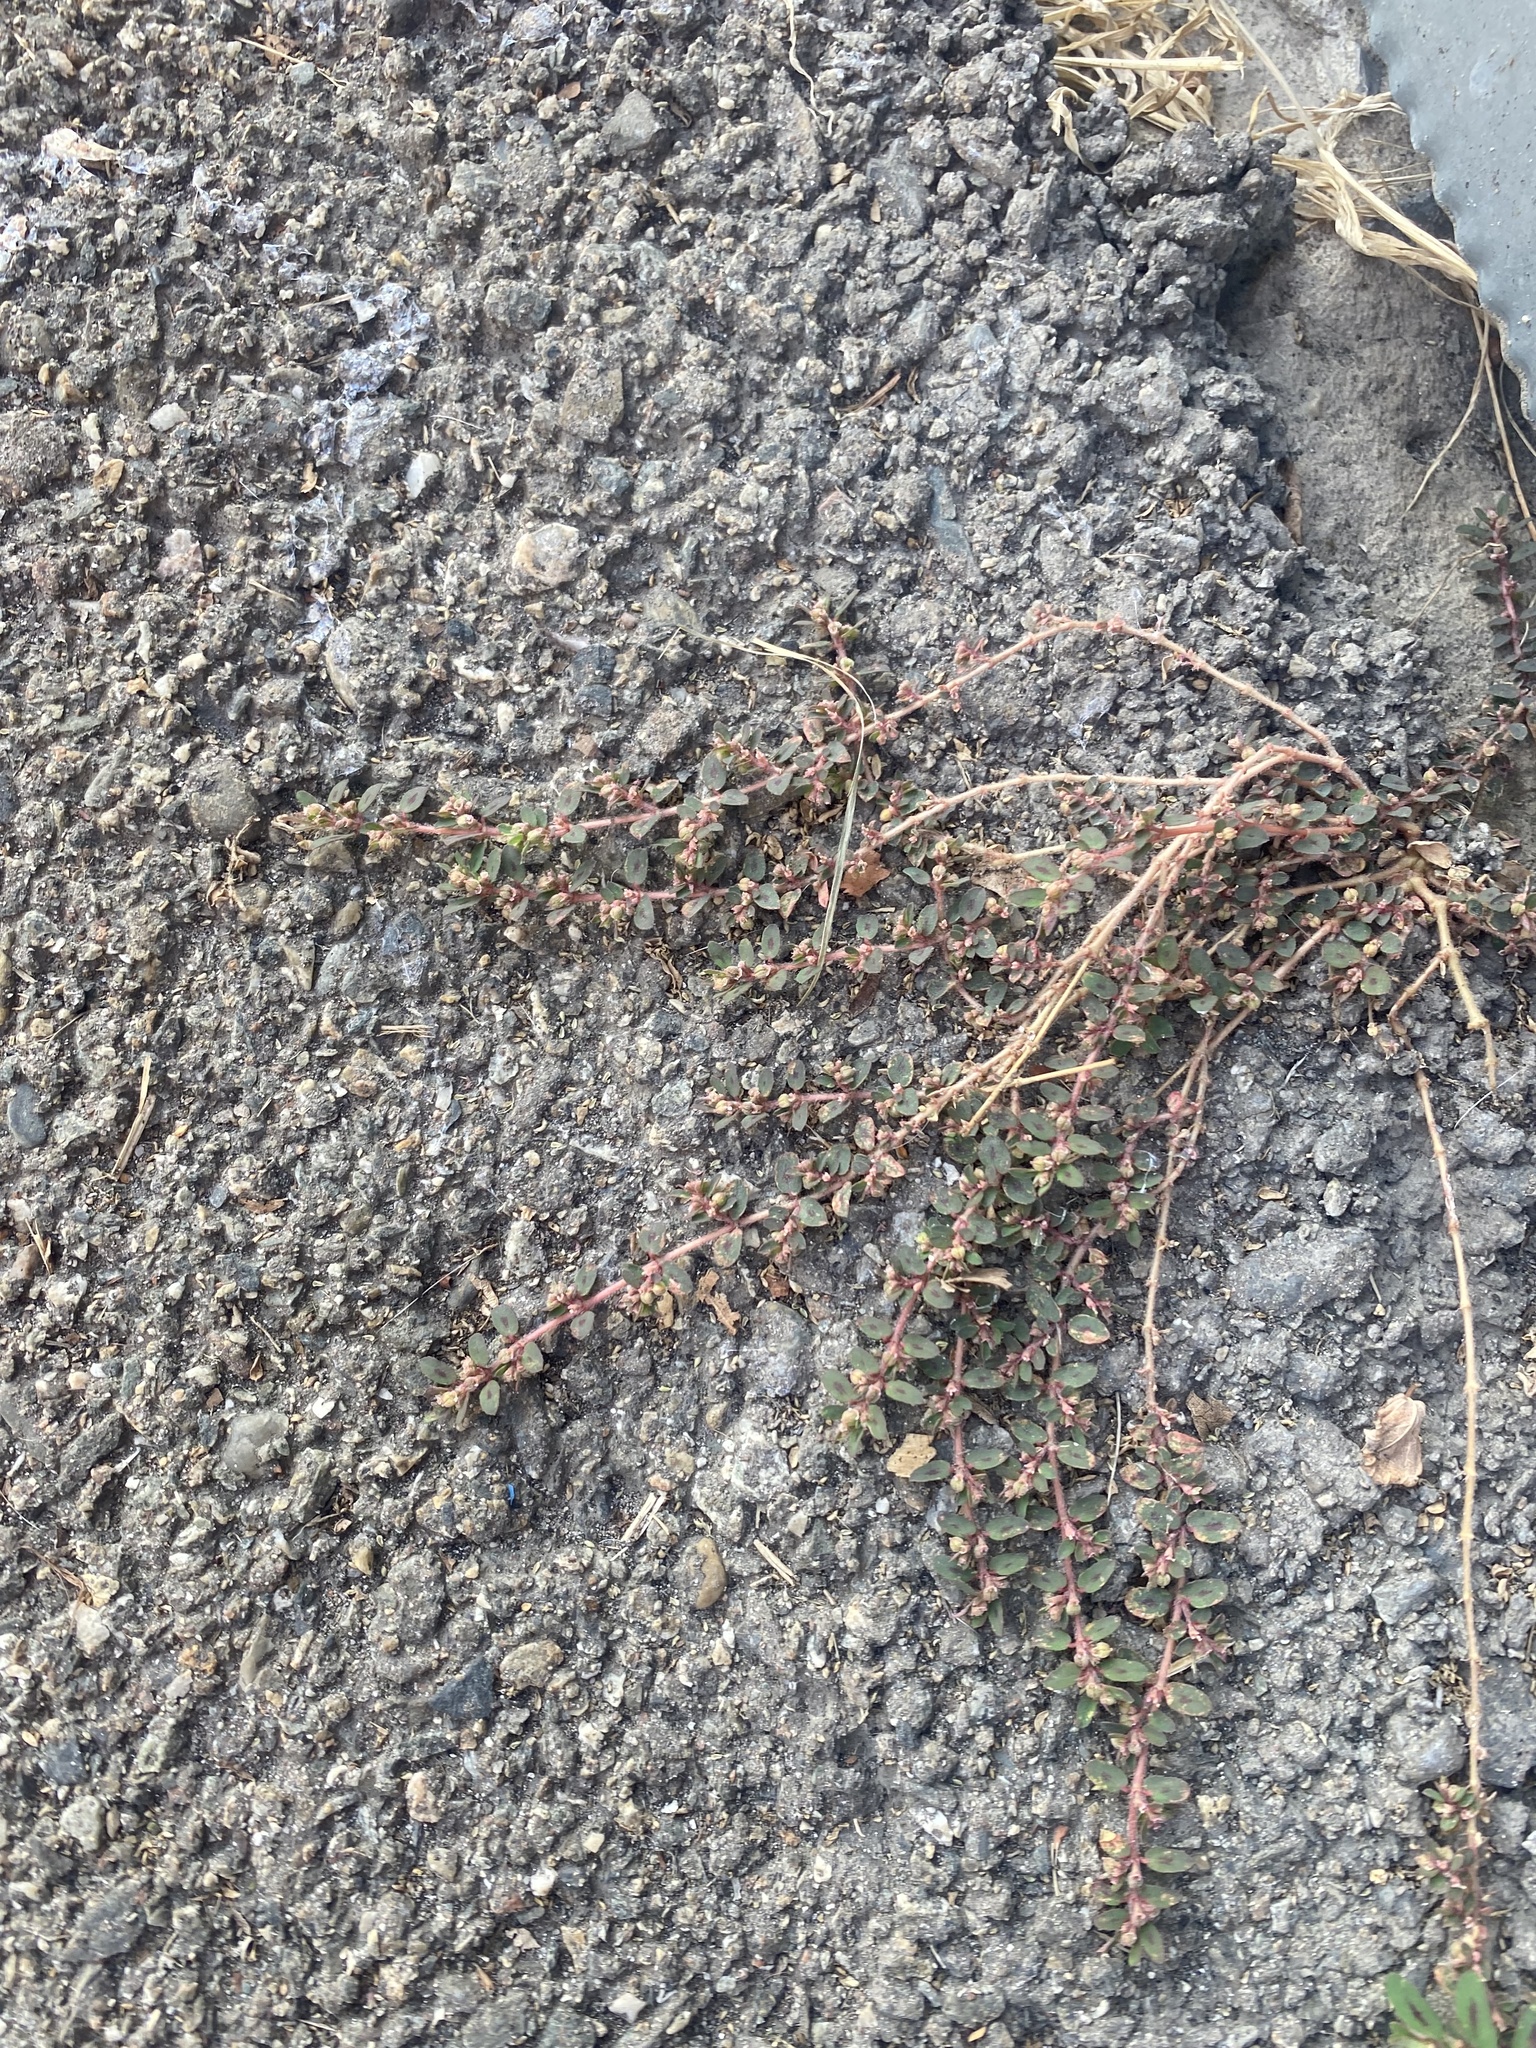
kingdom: Plantae
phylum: Tracheophyta
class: Magnoliopsida
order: Malpighiales
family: Euphorbiaceae
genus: Euphorbia
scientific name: Euphorbia maculata
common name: Spotted spurge
